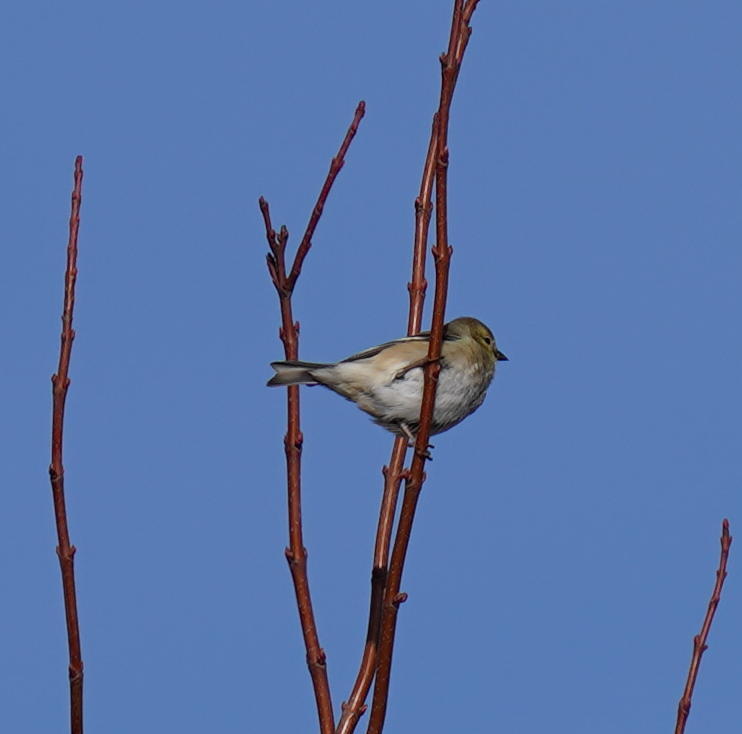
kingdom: Animalia
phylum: Chordata
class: Aves
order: Passeriformes
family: Fringillidae
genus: Spinus
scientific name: Spinus tristis
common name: American goldfinch
